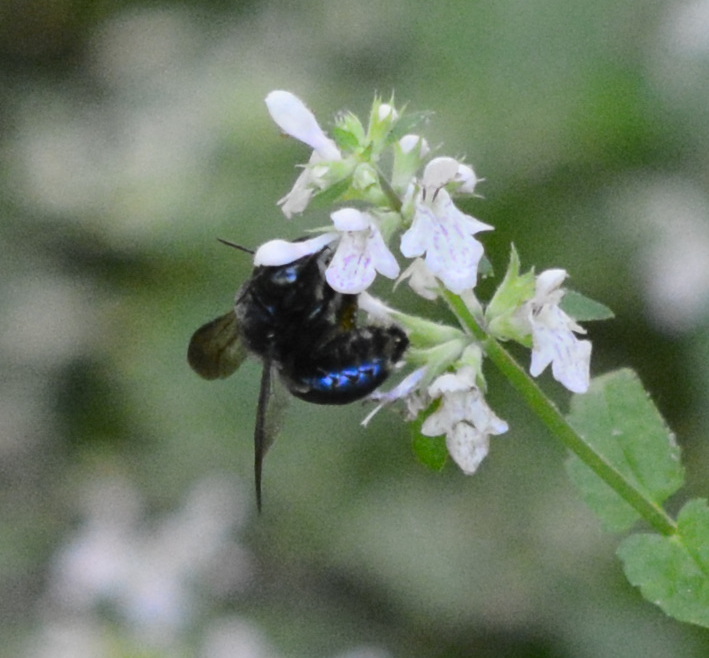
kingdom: Animalia
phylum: Arthropoda
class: Insecta
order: Hymenoptera
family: Apidae
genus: Xylocopa
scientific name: Xylocopa micans
